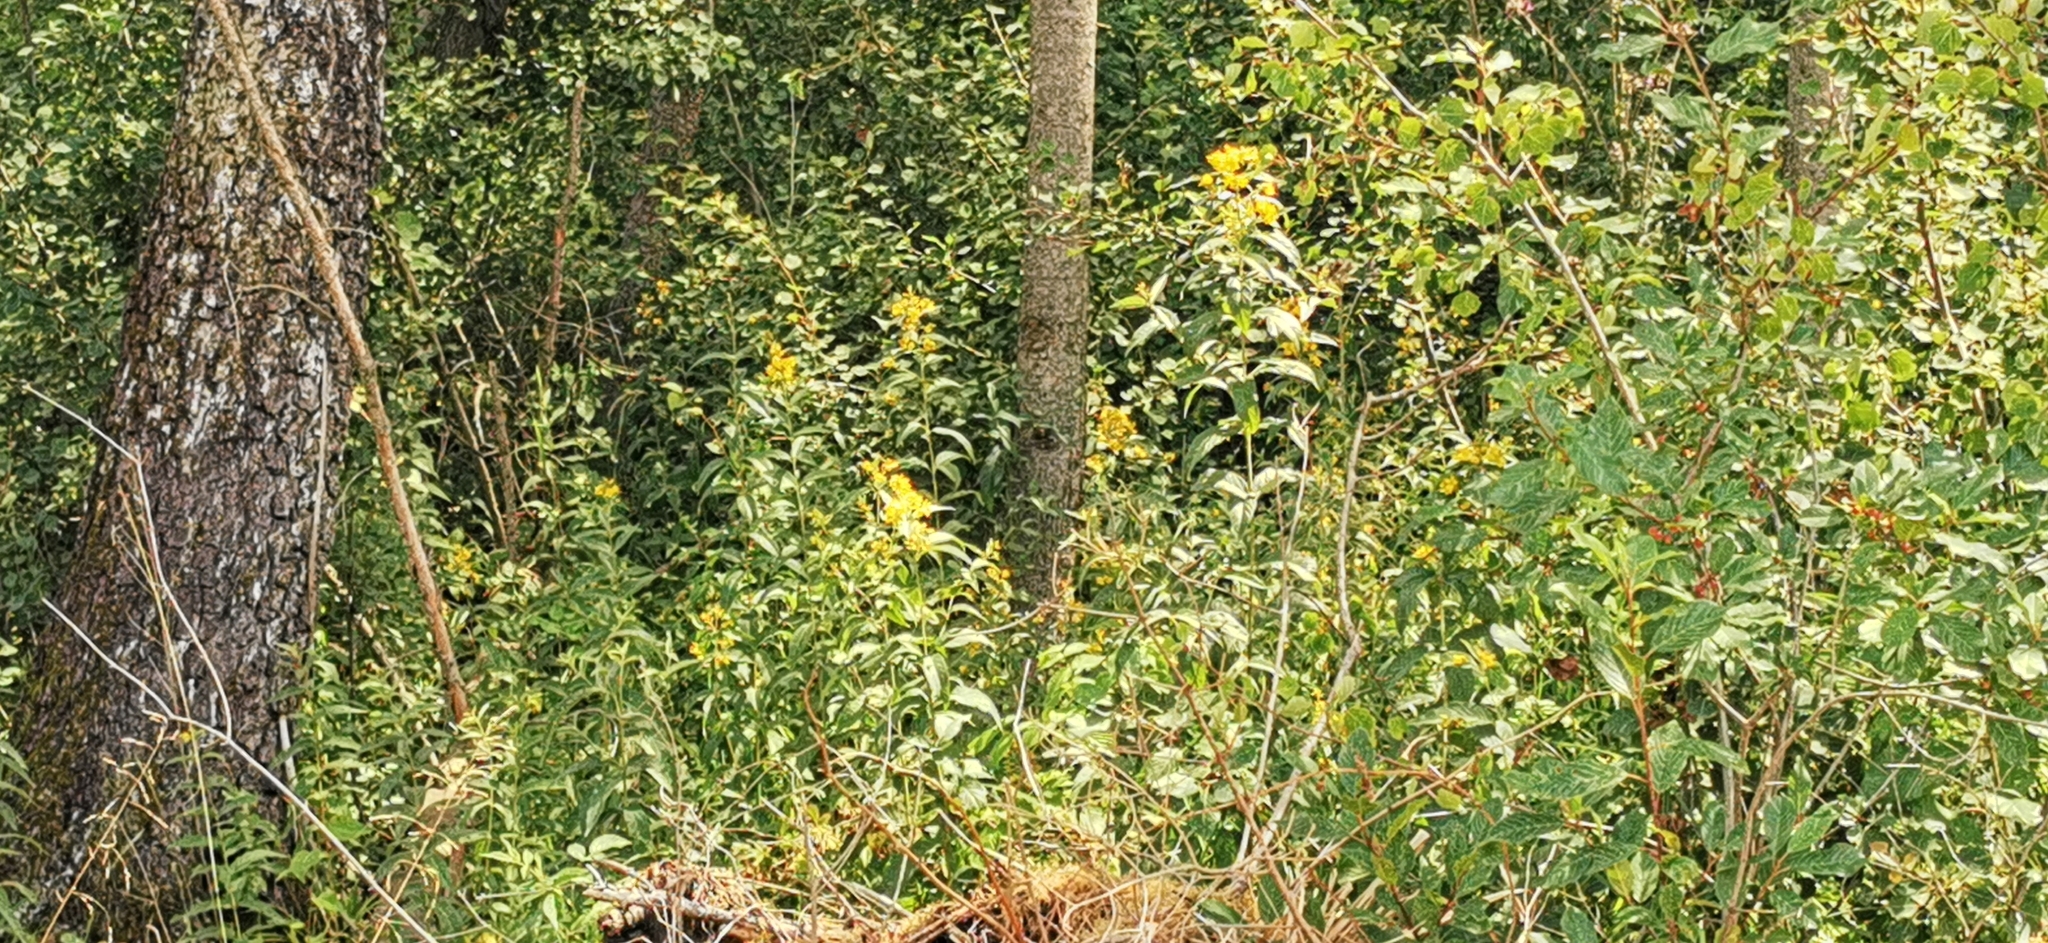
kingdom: Plantae
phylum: Tracheophyta
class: Magnoliopsida
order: Ericales
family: Primulaceae
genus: Lysimachia
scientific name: Lysimachia vulgaris
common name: Yellow loosestrife
